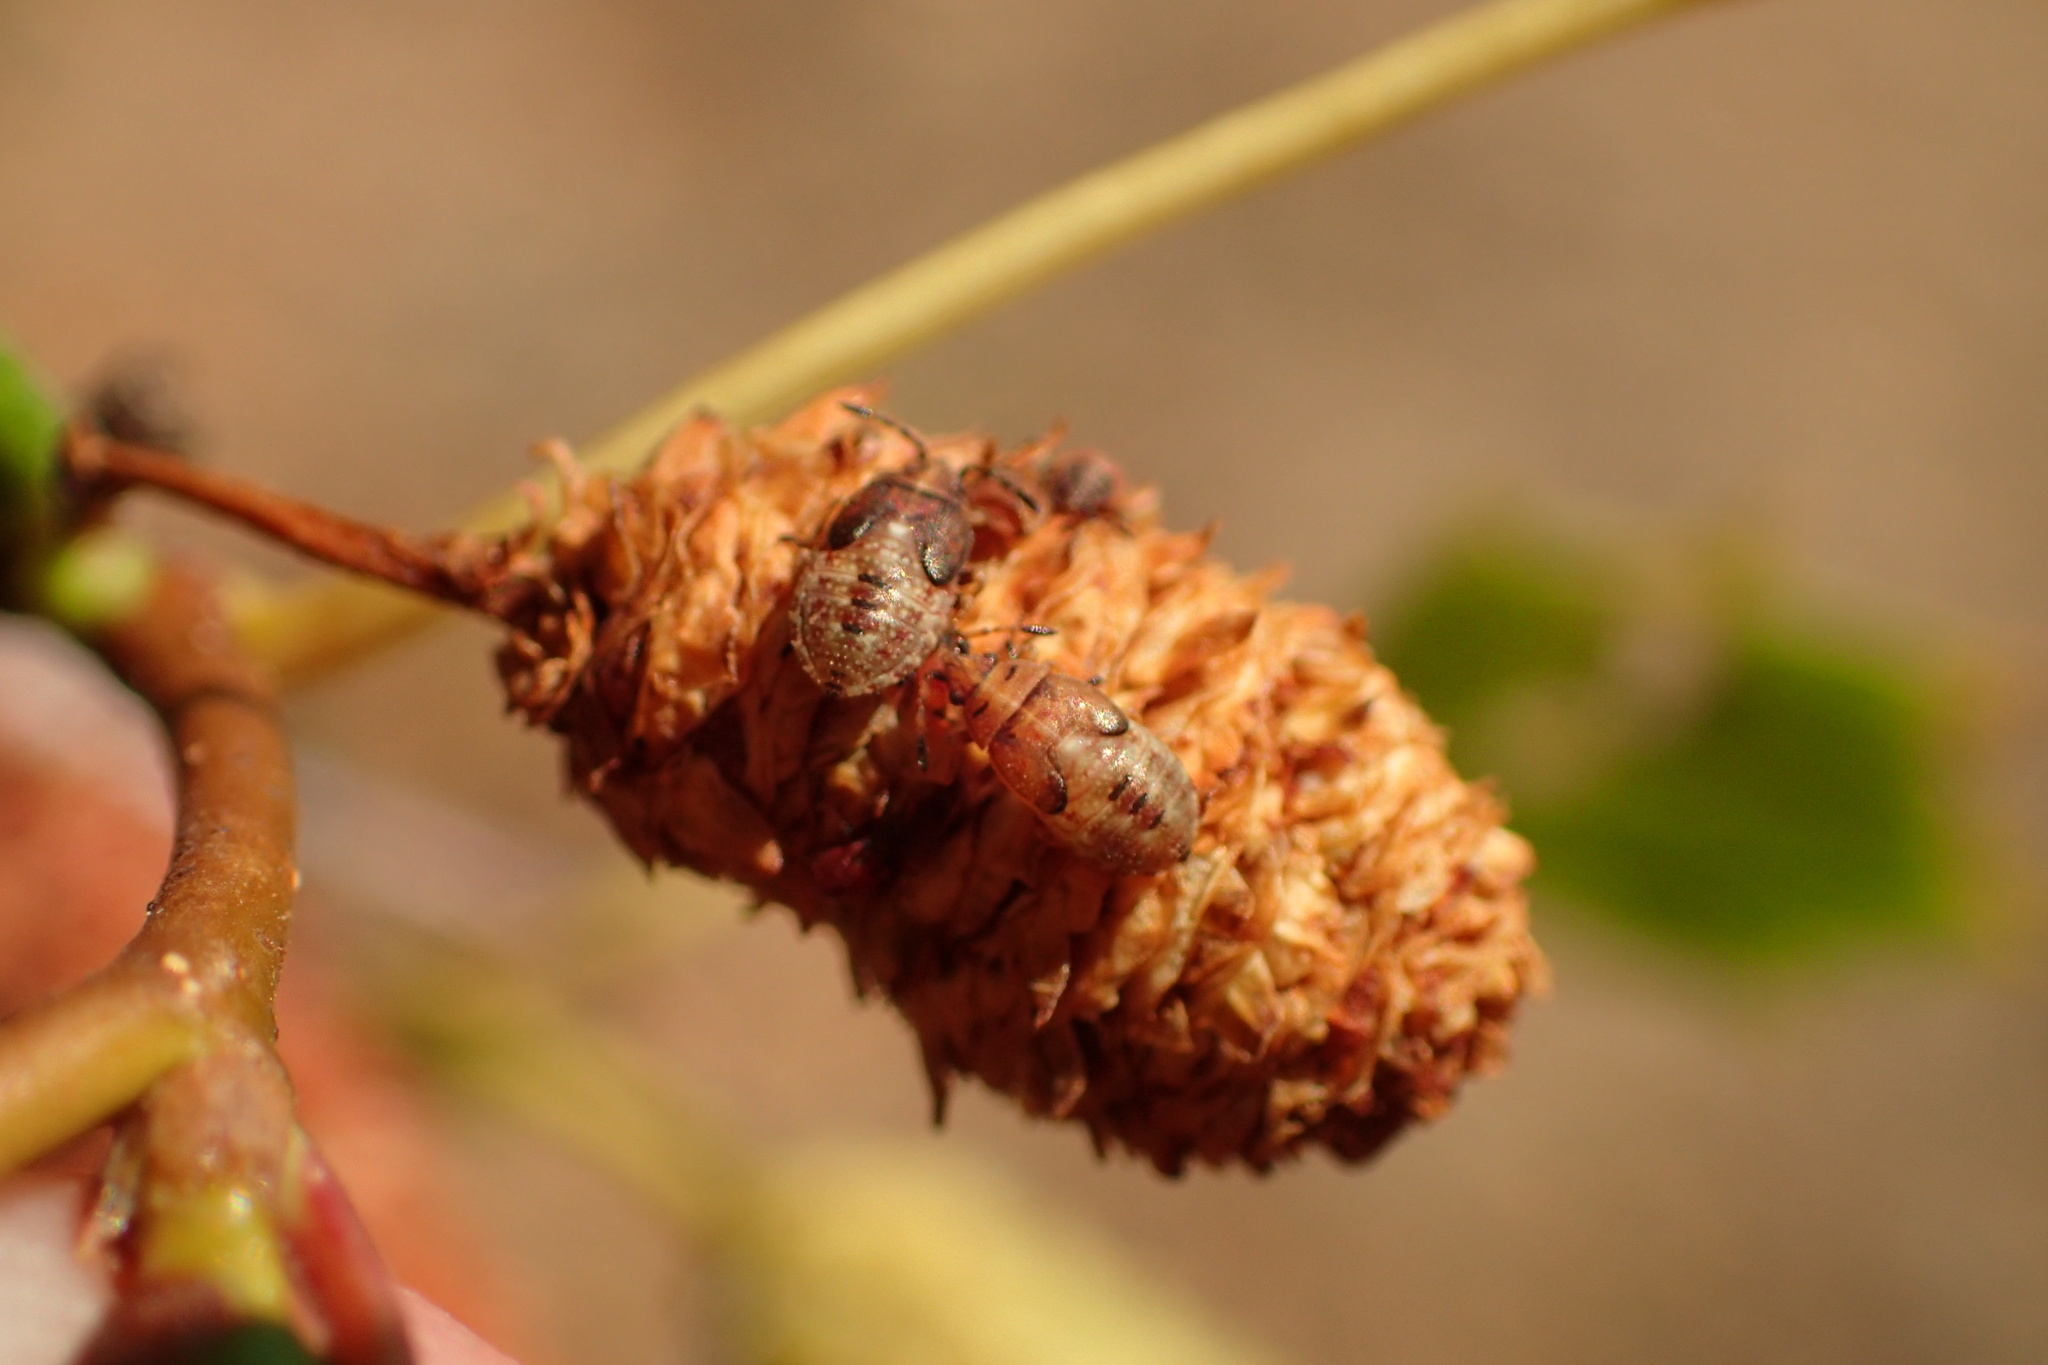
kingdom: Animalia
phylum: Arthropoda
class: Insecta
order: Hemiptera
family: Lygaeidae
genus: Kleidocerys
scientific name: Kleidocerys resedae
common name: Birch catkin bug
